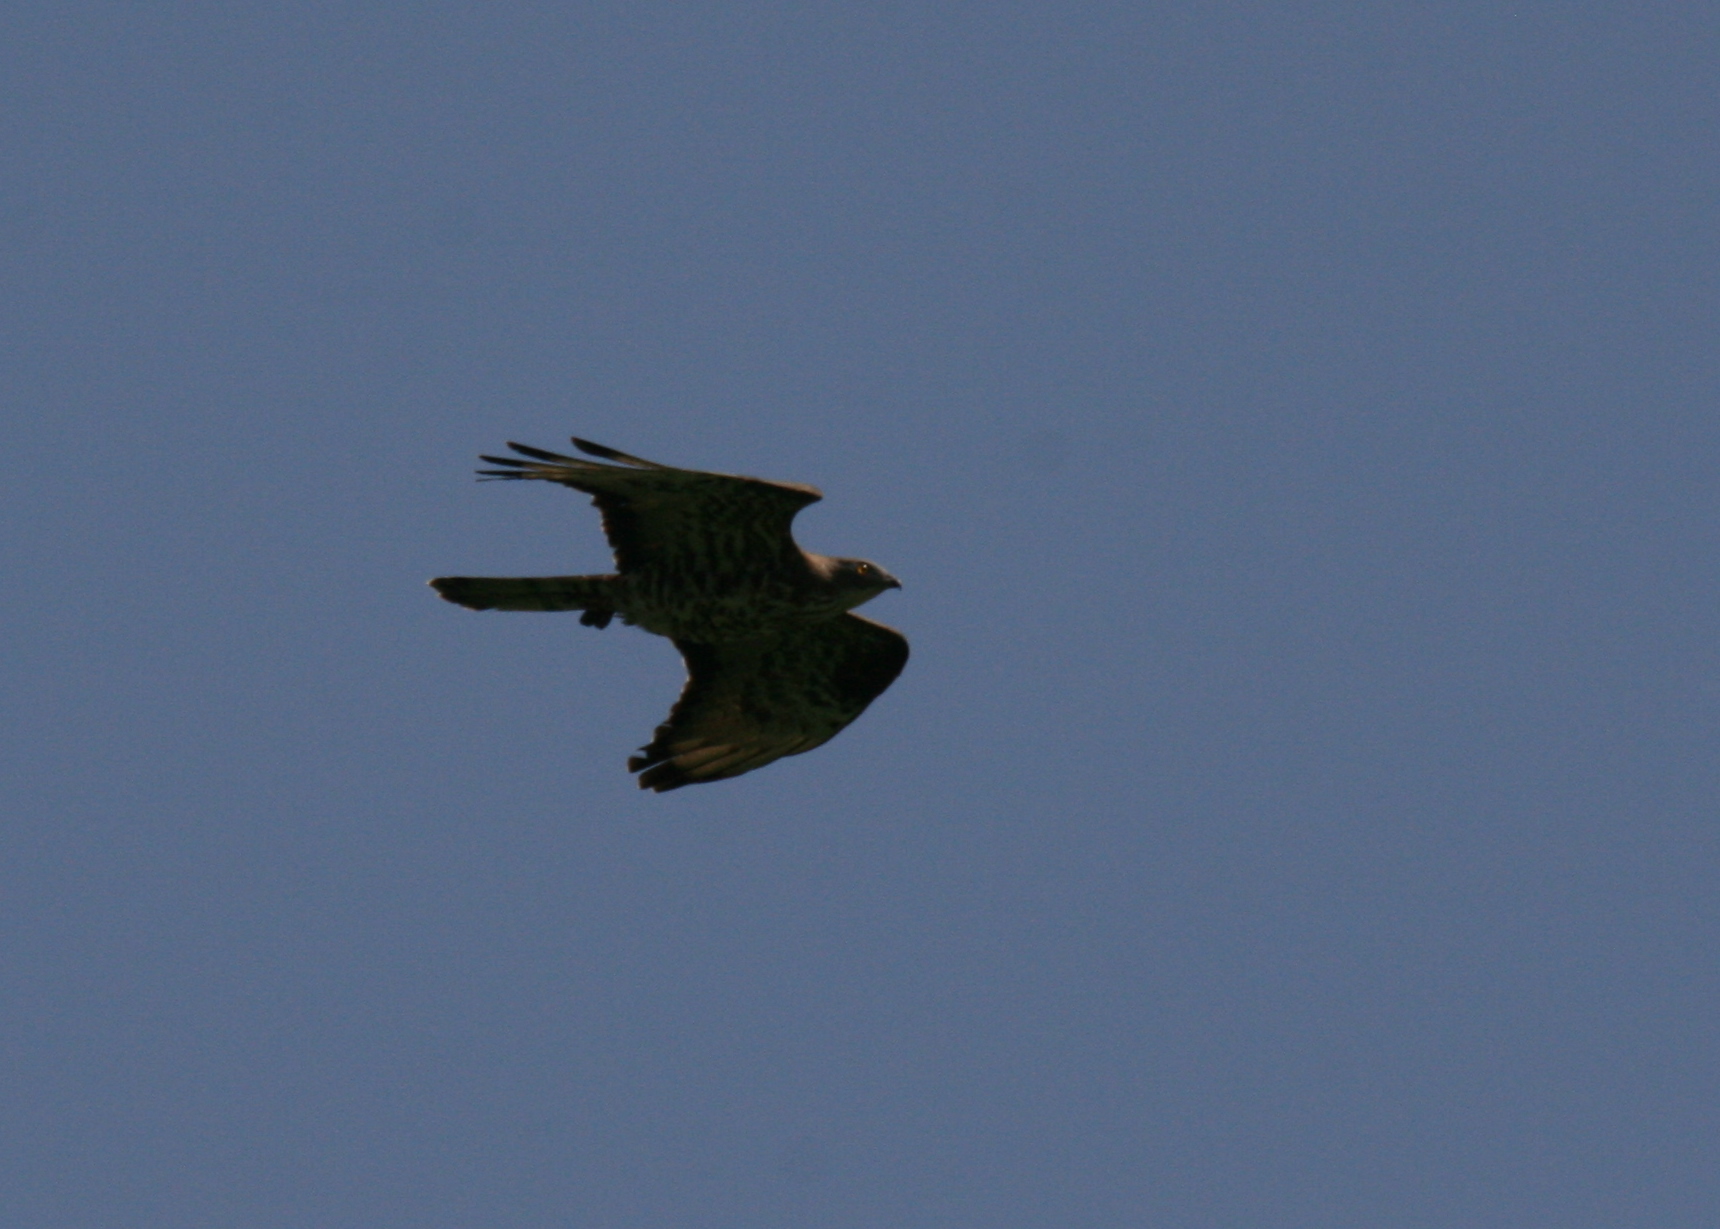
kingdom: Animalia
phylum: Chordata
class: Aves
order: Accipitriformes
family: Accipitridae
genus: Pernis
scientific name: Pernis apivorus
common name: European honey buzzard
